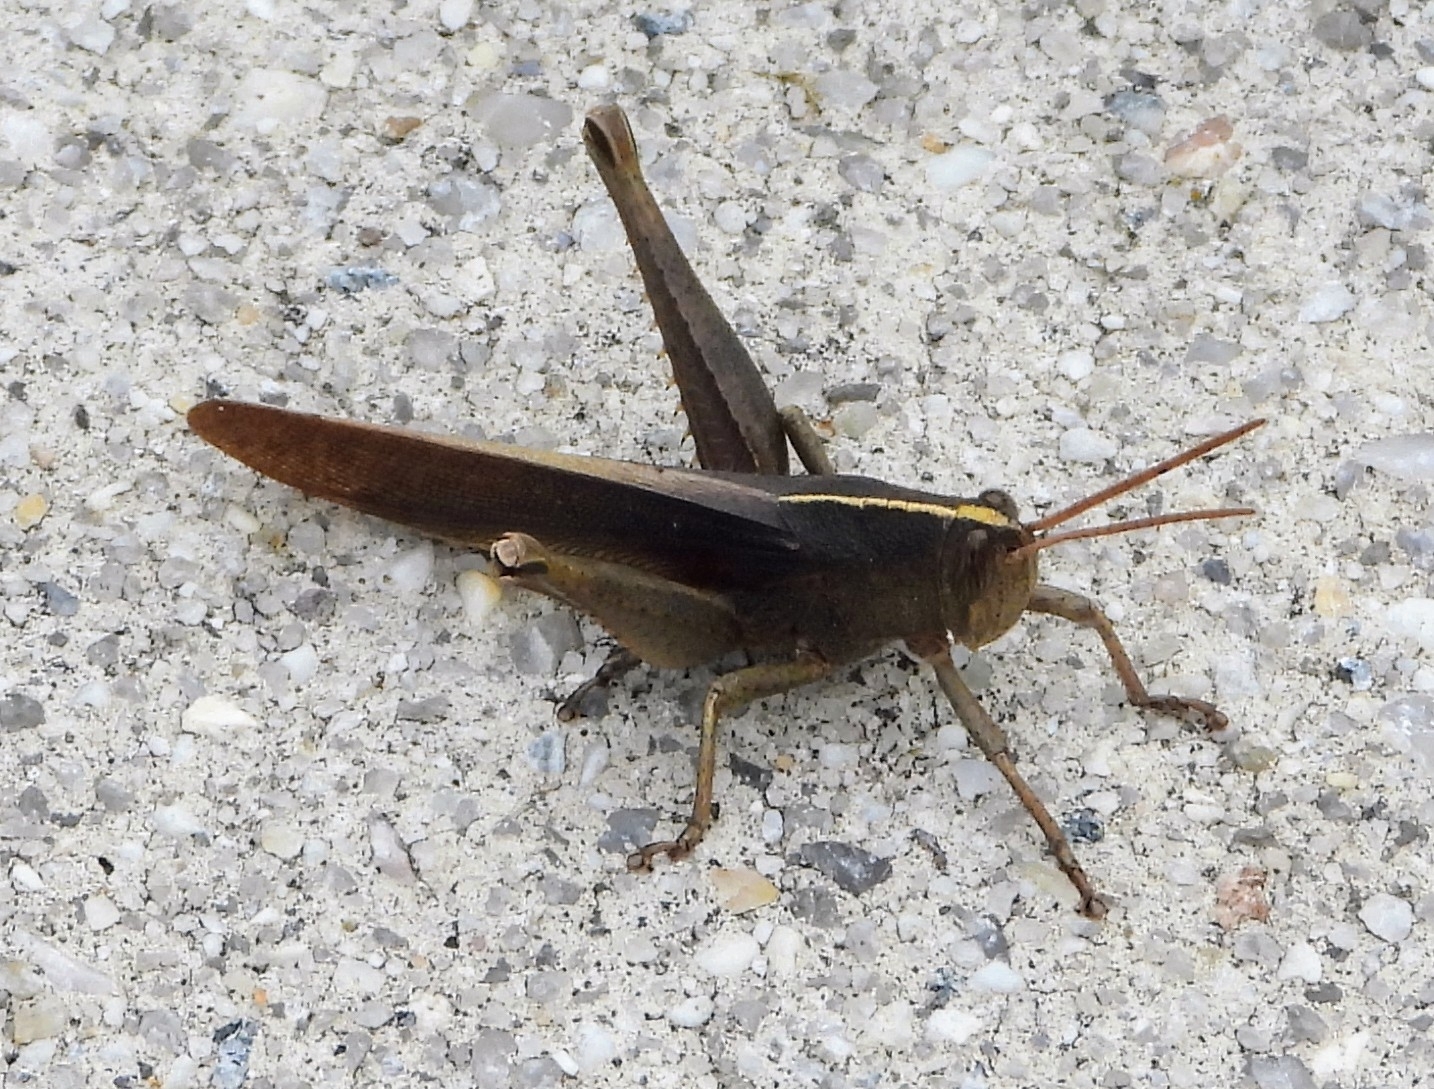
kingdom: Animalia
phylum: Arthropoda
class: Insecta
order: Orthoptera
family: Acrididae
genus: Schistocerca
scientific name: Schistocerca damnifica
